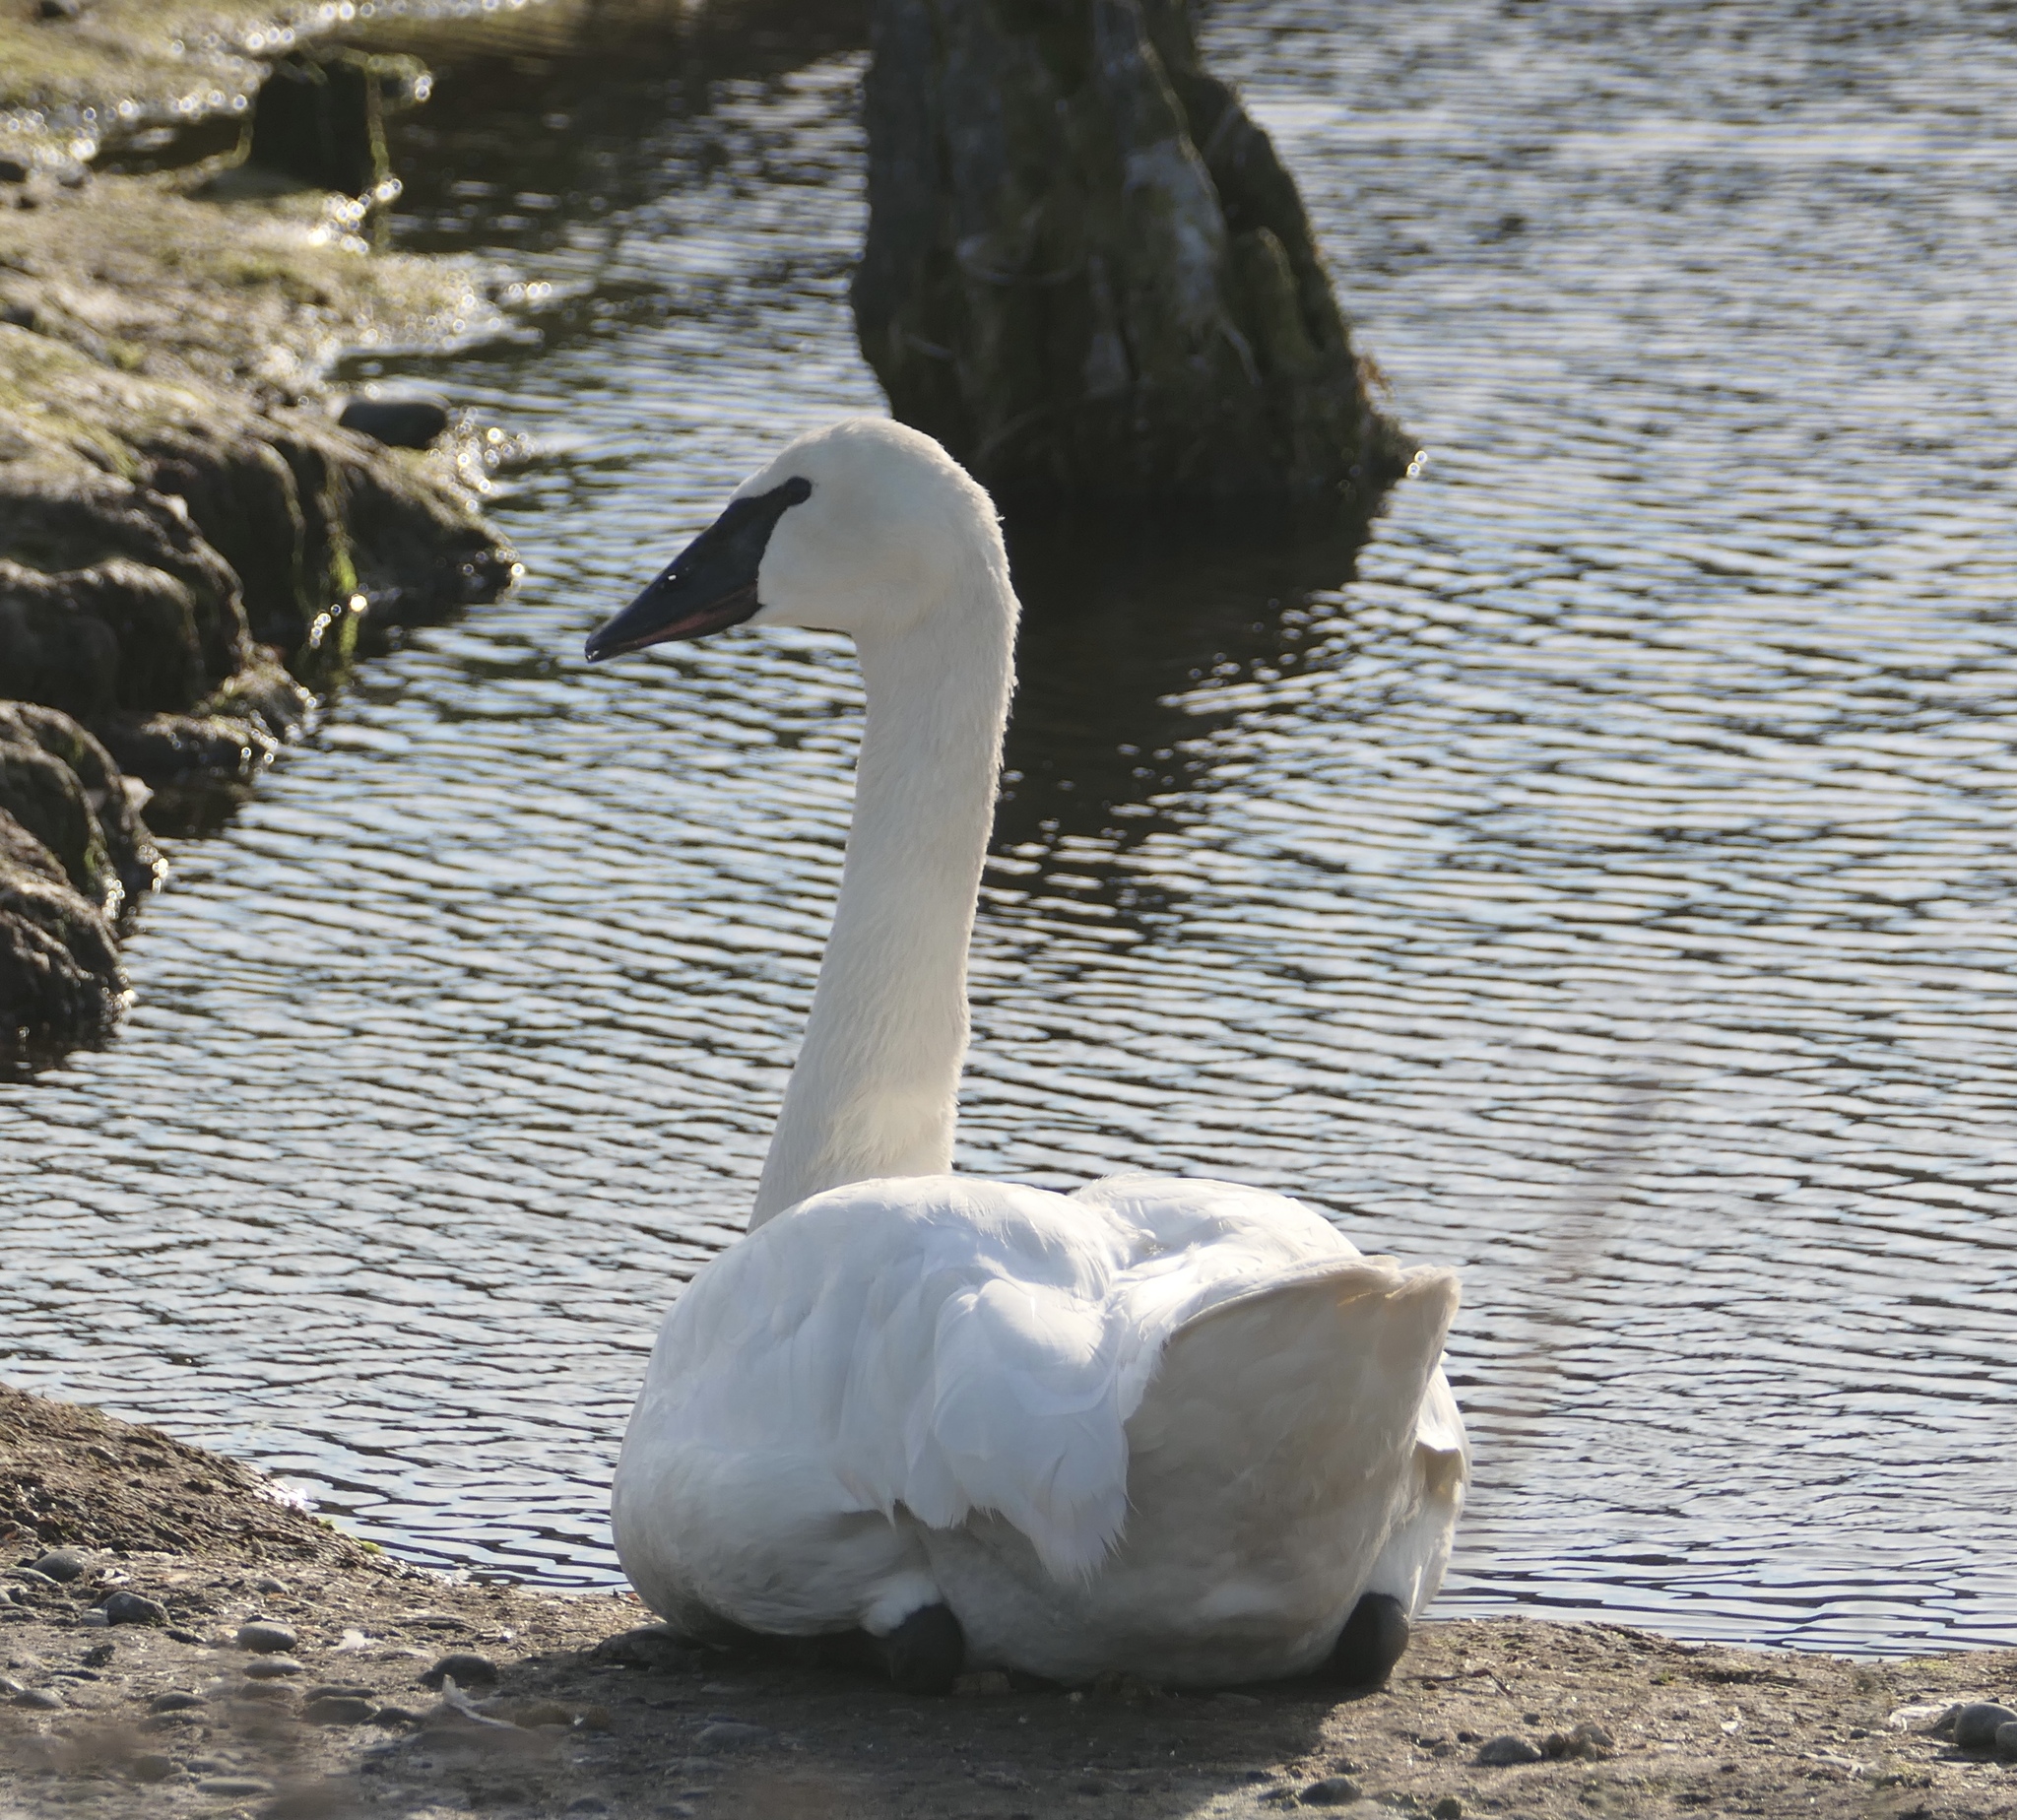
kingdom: Animalia
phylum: Chordata
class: Aves
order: Anseriformes
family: Anatidae
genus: Cygnus
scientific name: Cygnus buccinator
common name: Trumpeter swan
